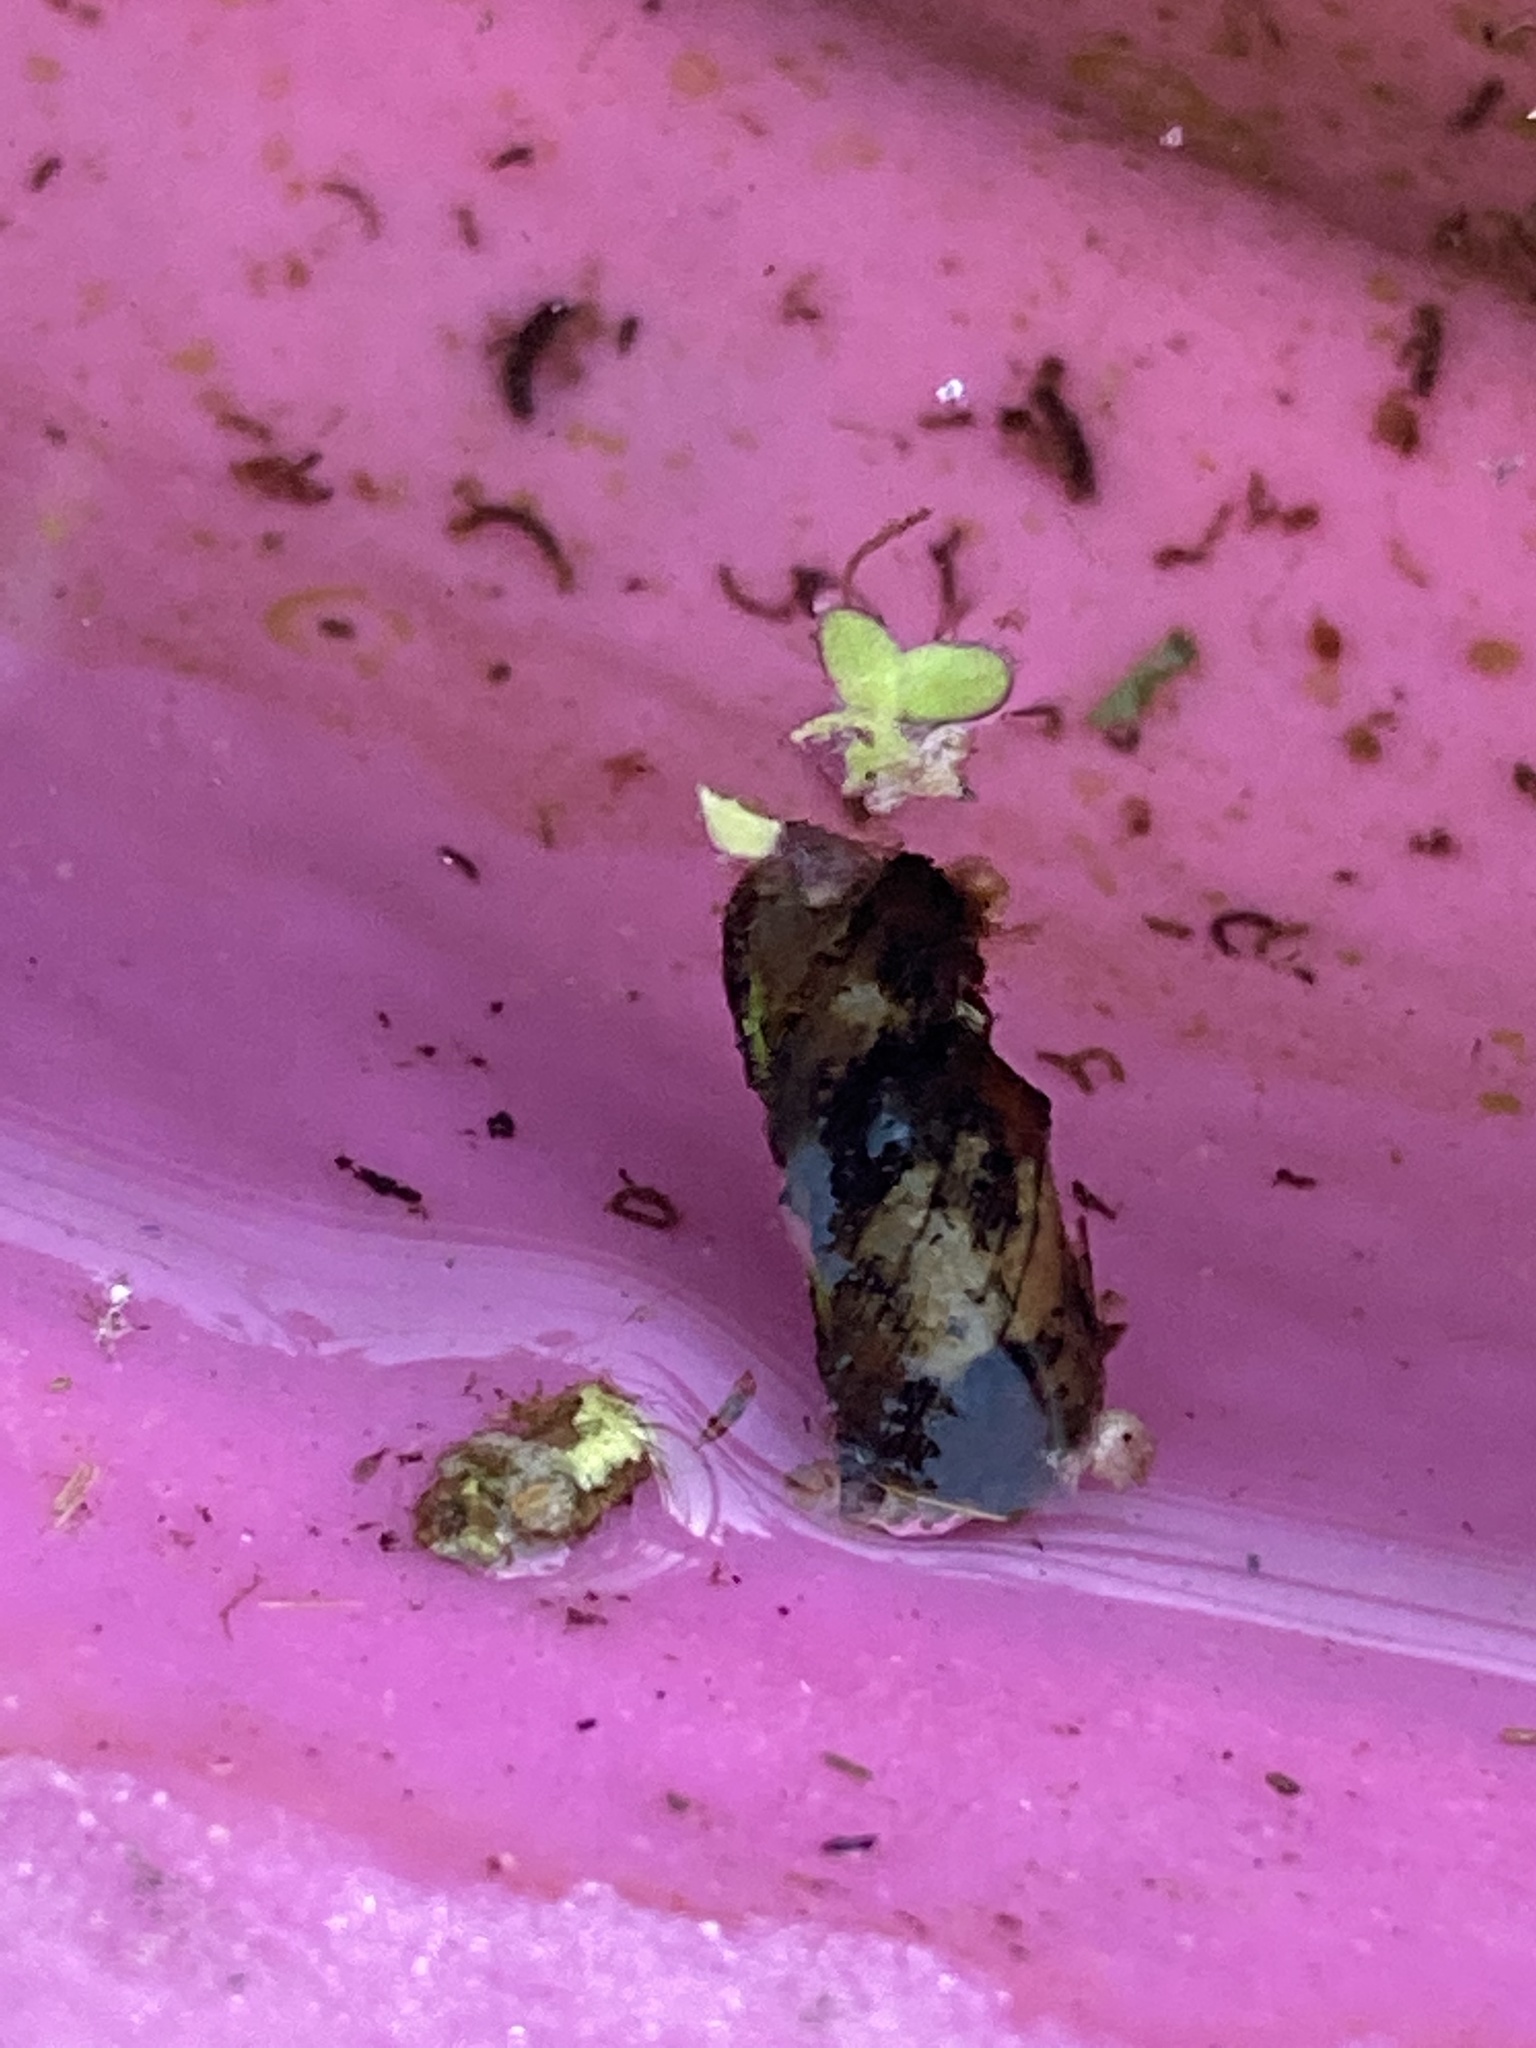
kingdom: Animalia
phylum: Arthropoda
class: Insecta
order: Lepidoptera
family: Crambidae
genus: Elophila
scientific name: Elophila obliteralis
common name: Waterlily leafcutter moth
